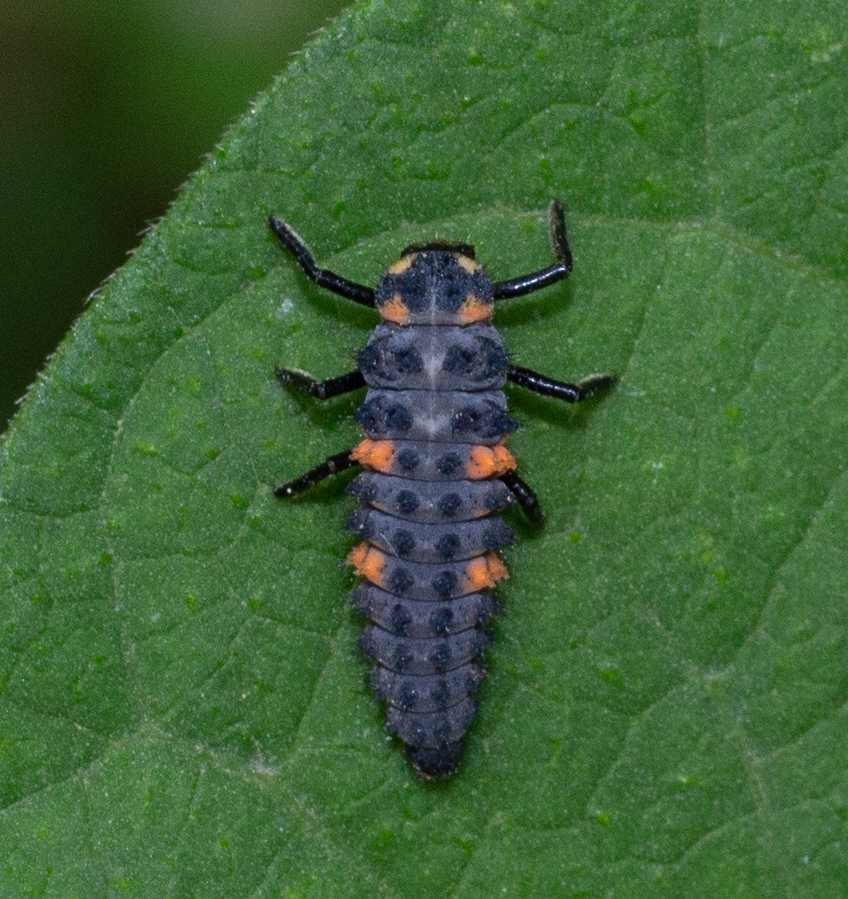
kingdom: Animalia
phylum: Arthropoda
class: Insecta
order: Coleoptera
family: Coccinellidae
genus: Coccinella
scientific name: Coccinella septempunctata
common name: Sevenspotted lady beetle
